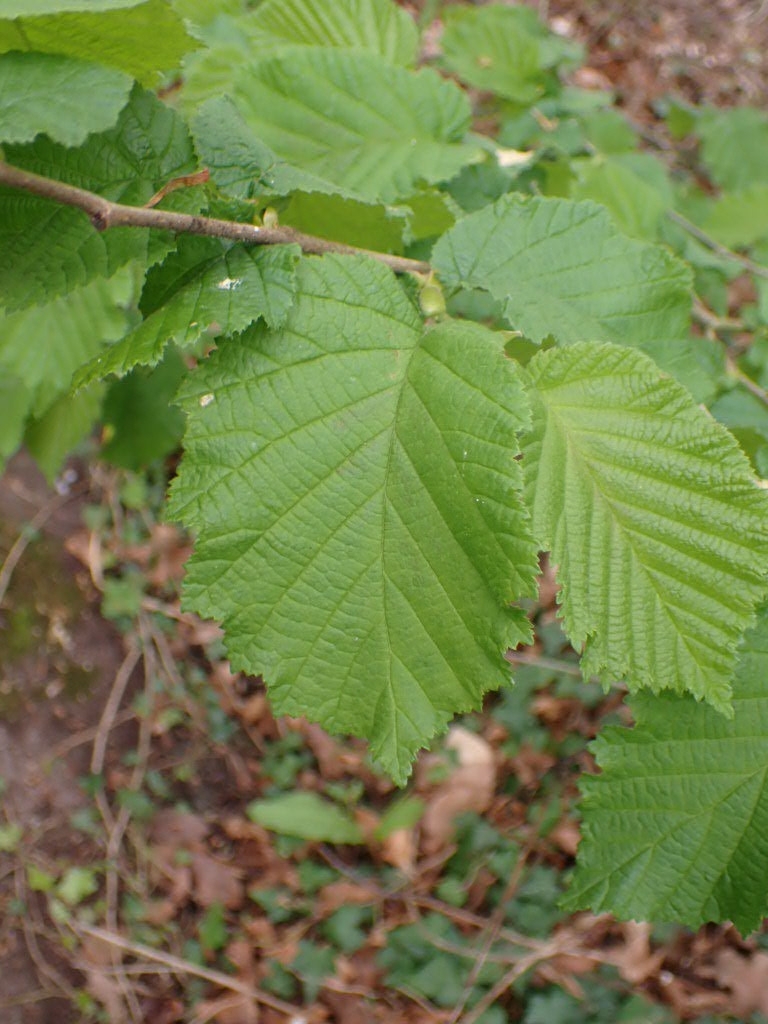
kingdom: Plantae
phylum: Tracheophyta
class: Magnoliopsida
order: Fagales
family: Betulaceae
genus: Corylus
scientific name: Corylus avellana
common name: European hazel
